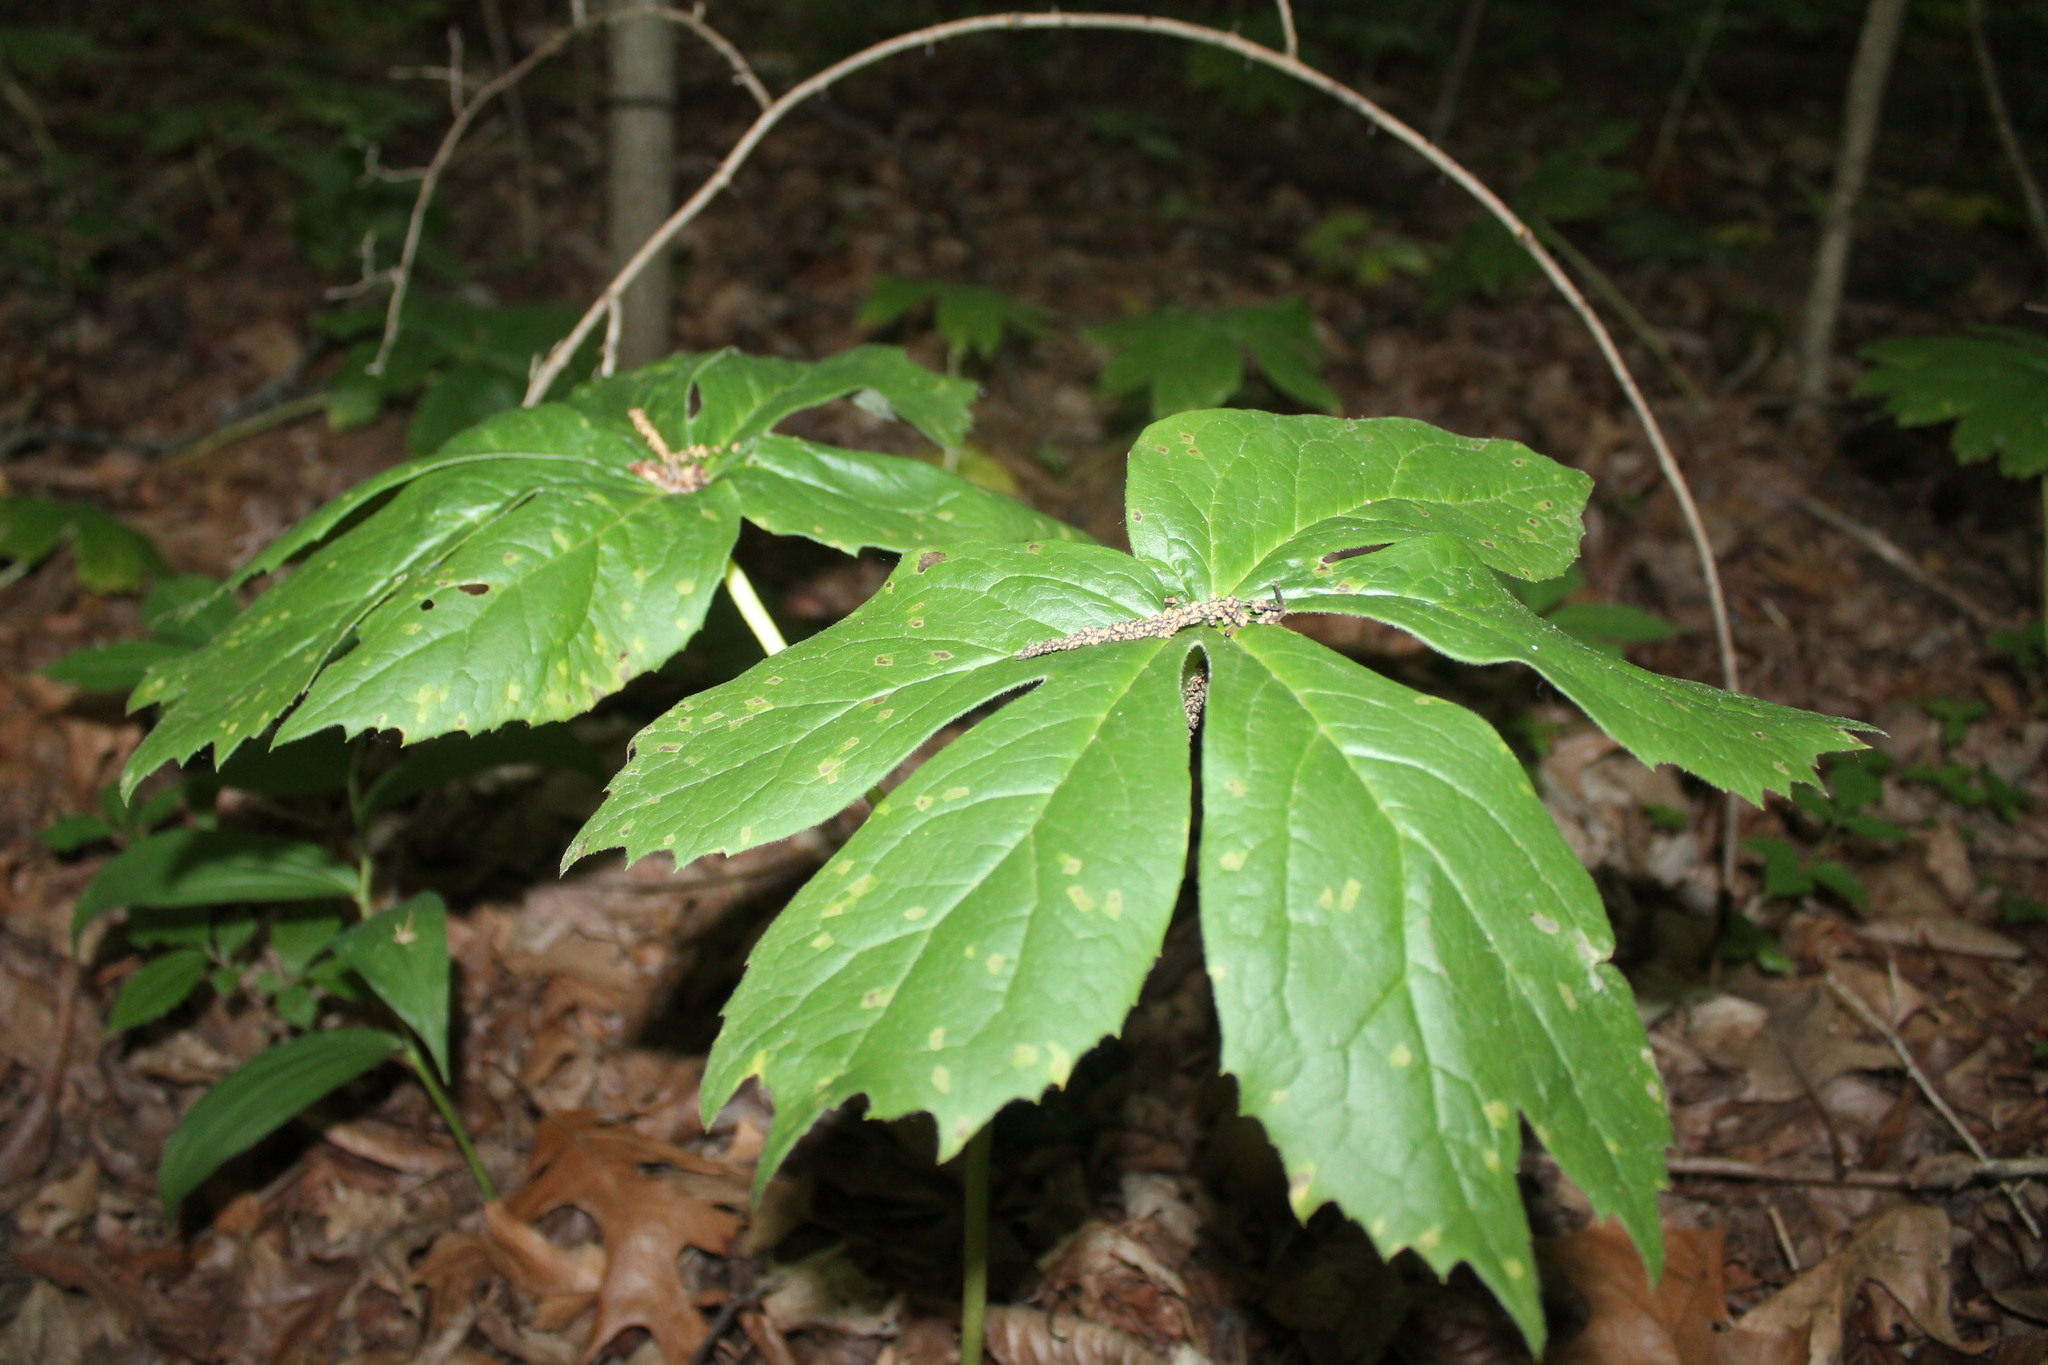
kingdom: Plantae
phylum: Tracheophyta
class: Magnoliopsida
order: Ranunculales
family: Berberidaceae
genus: Podophyllum
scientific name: Podophyllum peltatum
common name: Wild mandrake
